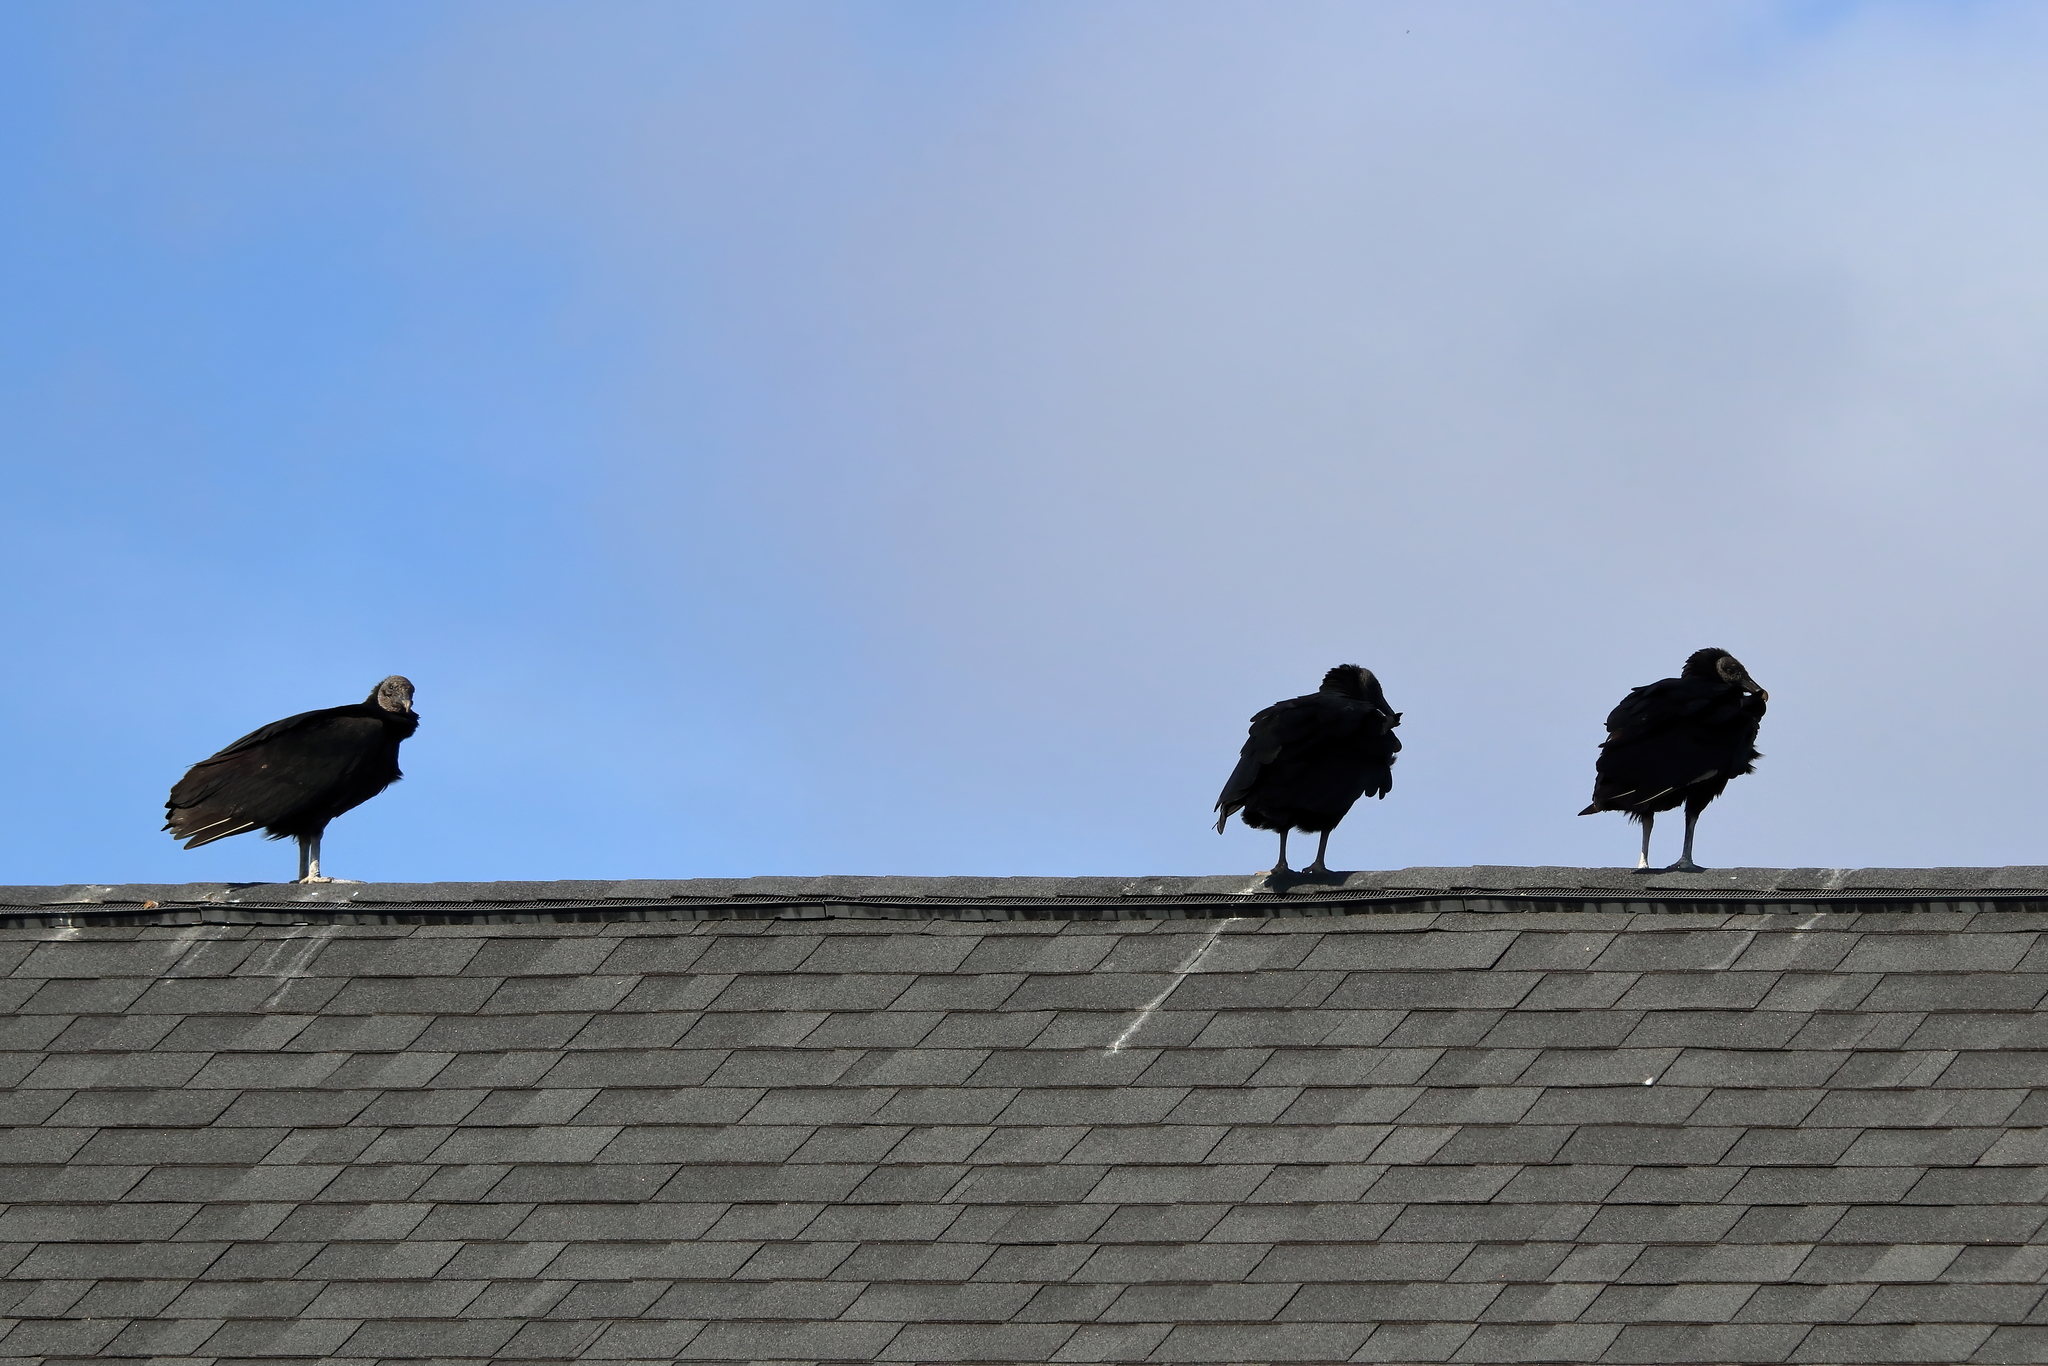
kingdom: Animalia
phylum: Chordata
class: Aves
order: Accipitriformes
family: Cathartidae
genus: Coragyps
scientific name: Coragyps atratus
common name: Black vulture
